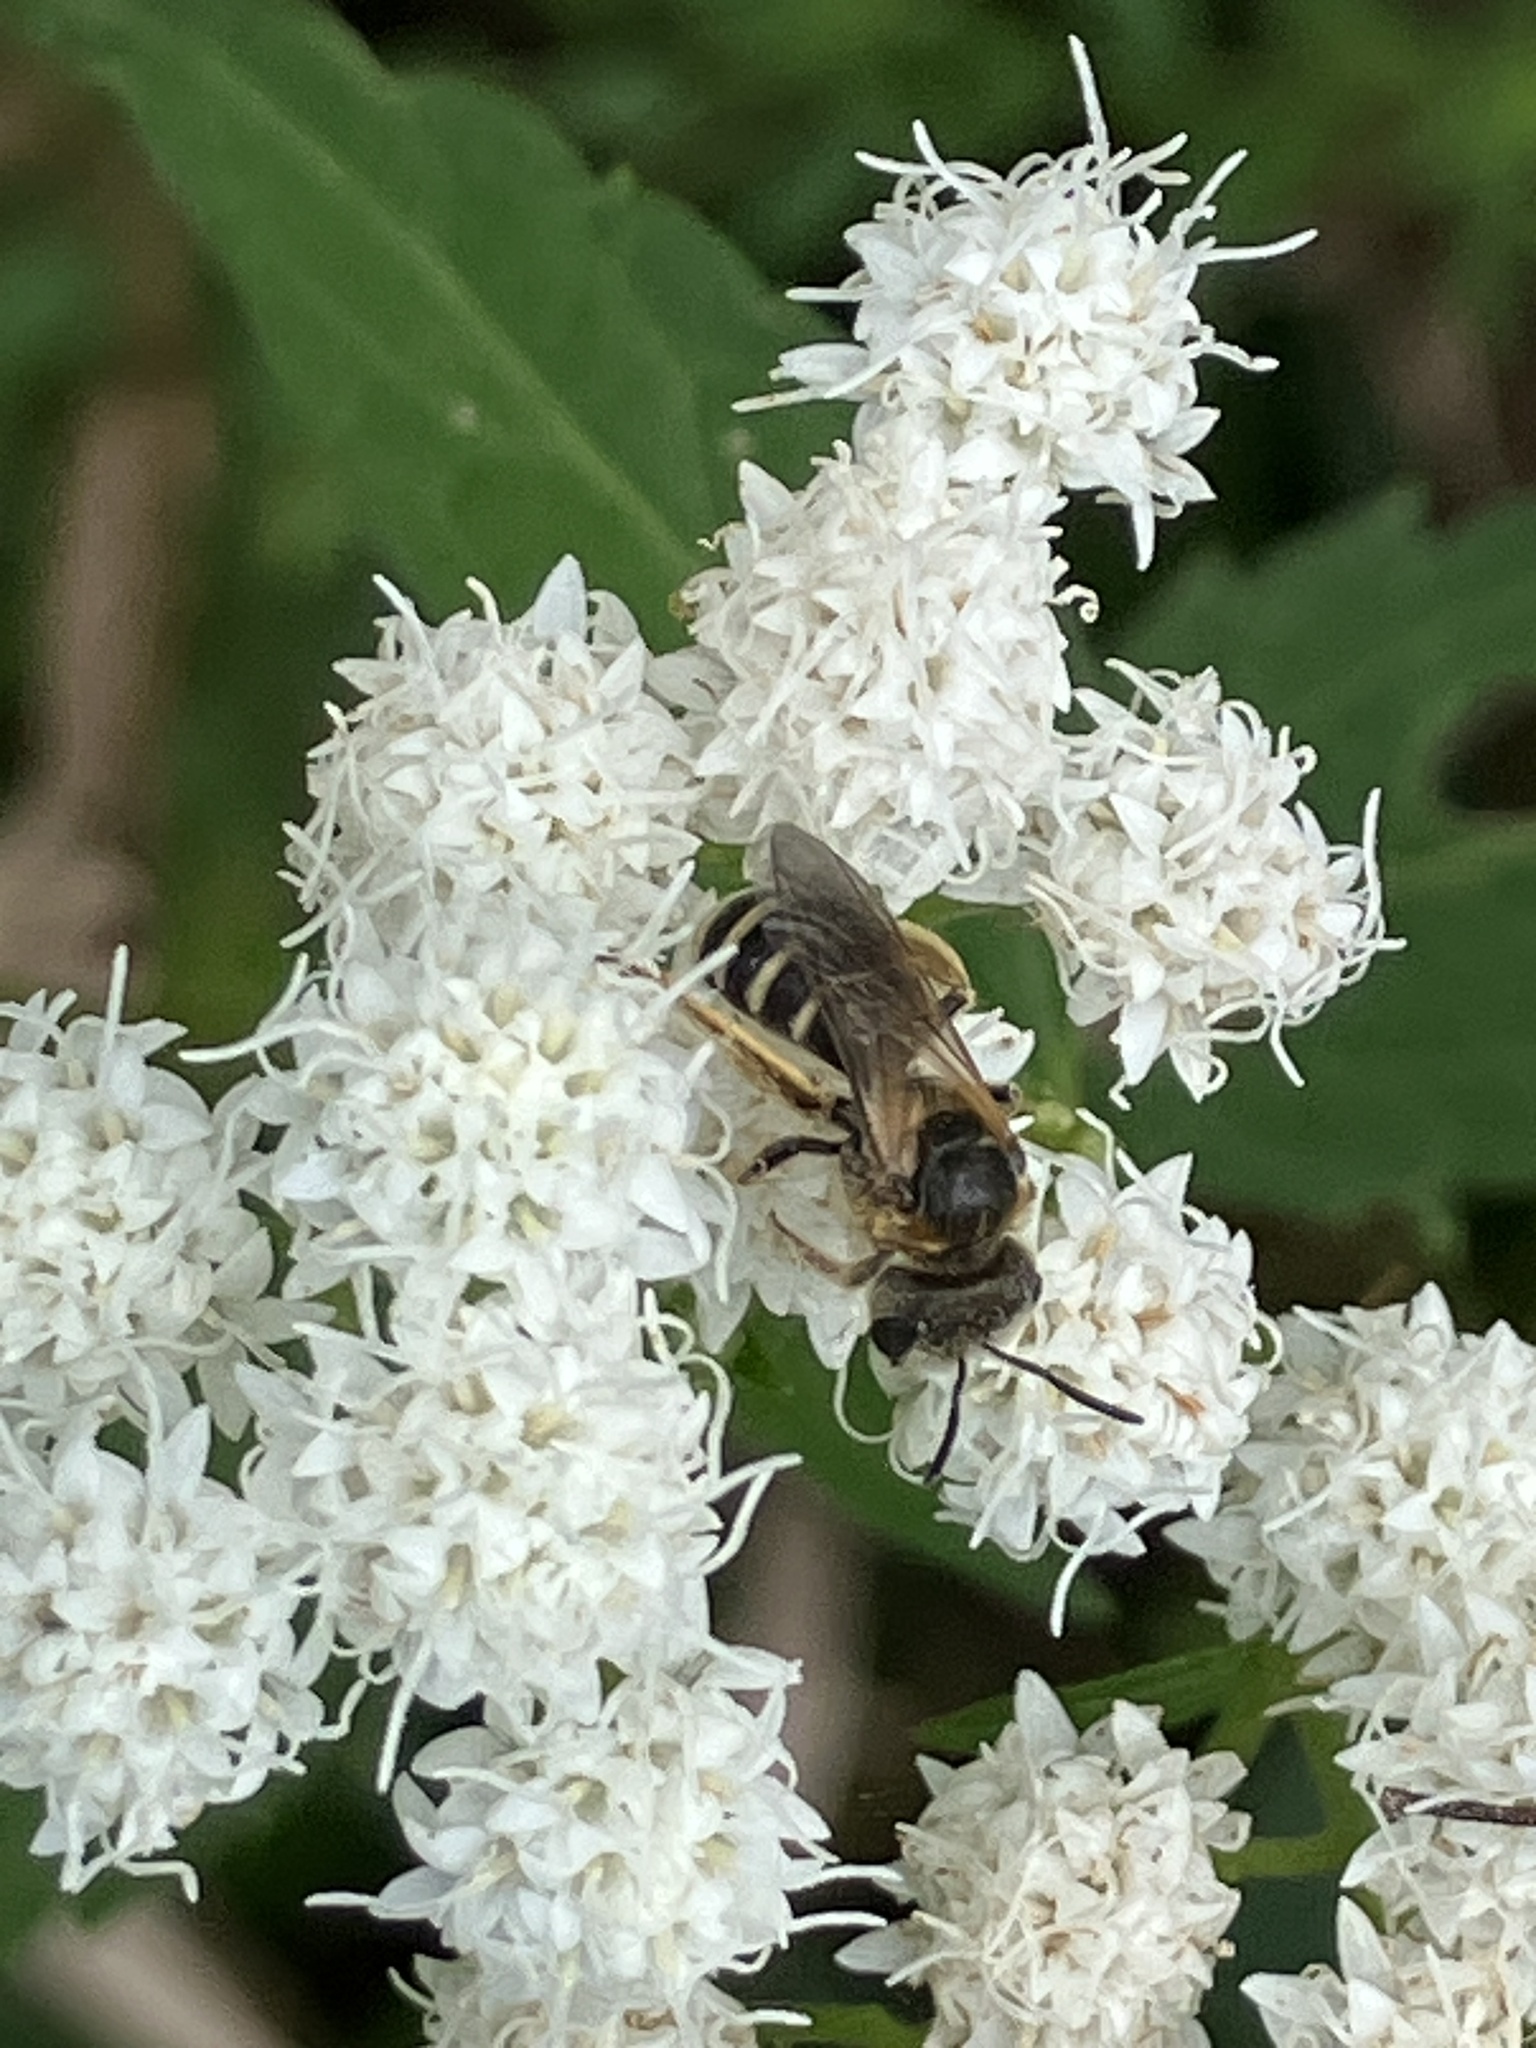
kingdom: Animalia
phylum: Arthropoda
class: Insecta
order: Hymenoptera
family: Halictidae
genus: Halictus
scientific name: Halictus ligatus
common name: Ligated furrow bee
